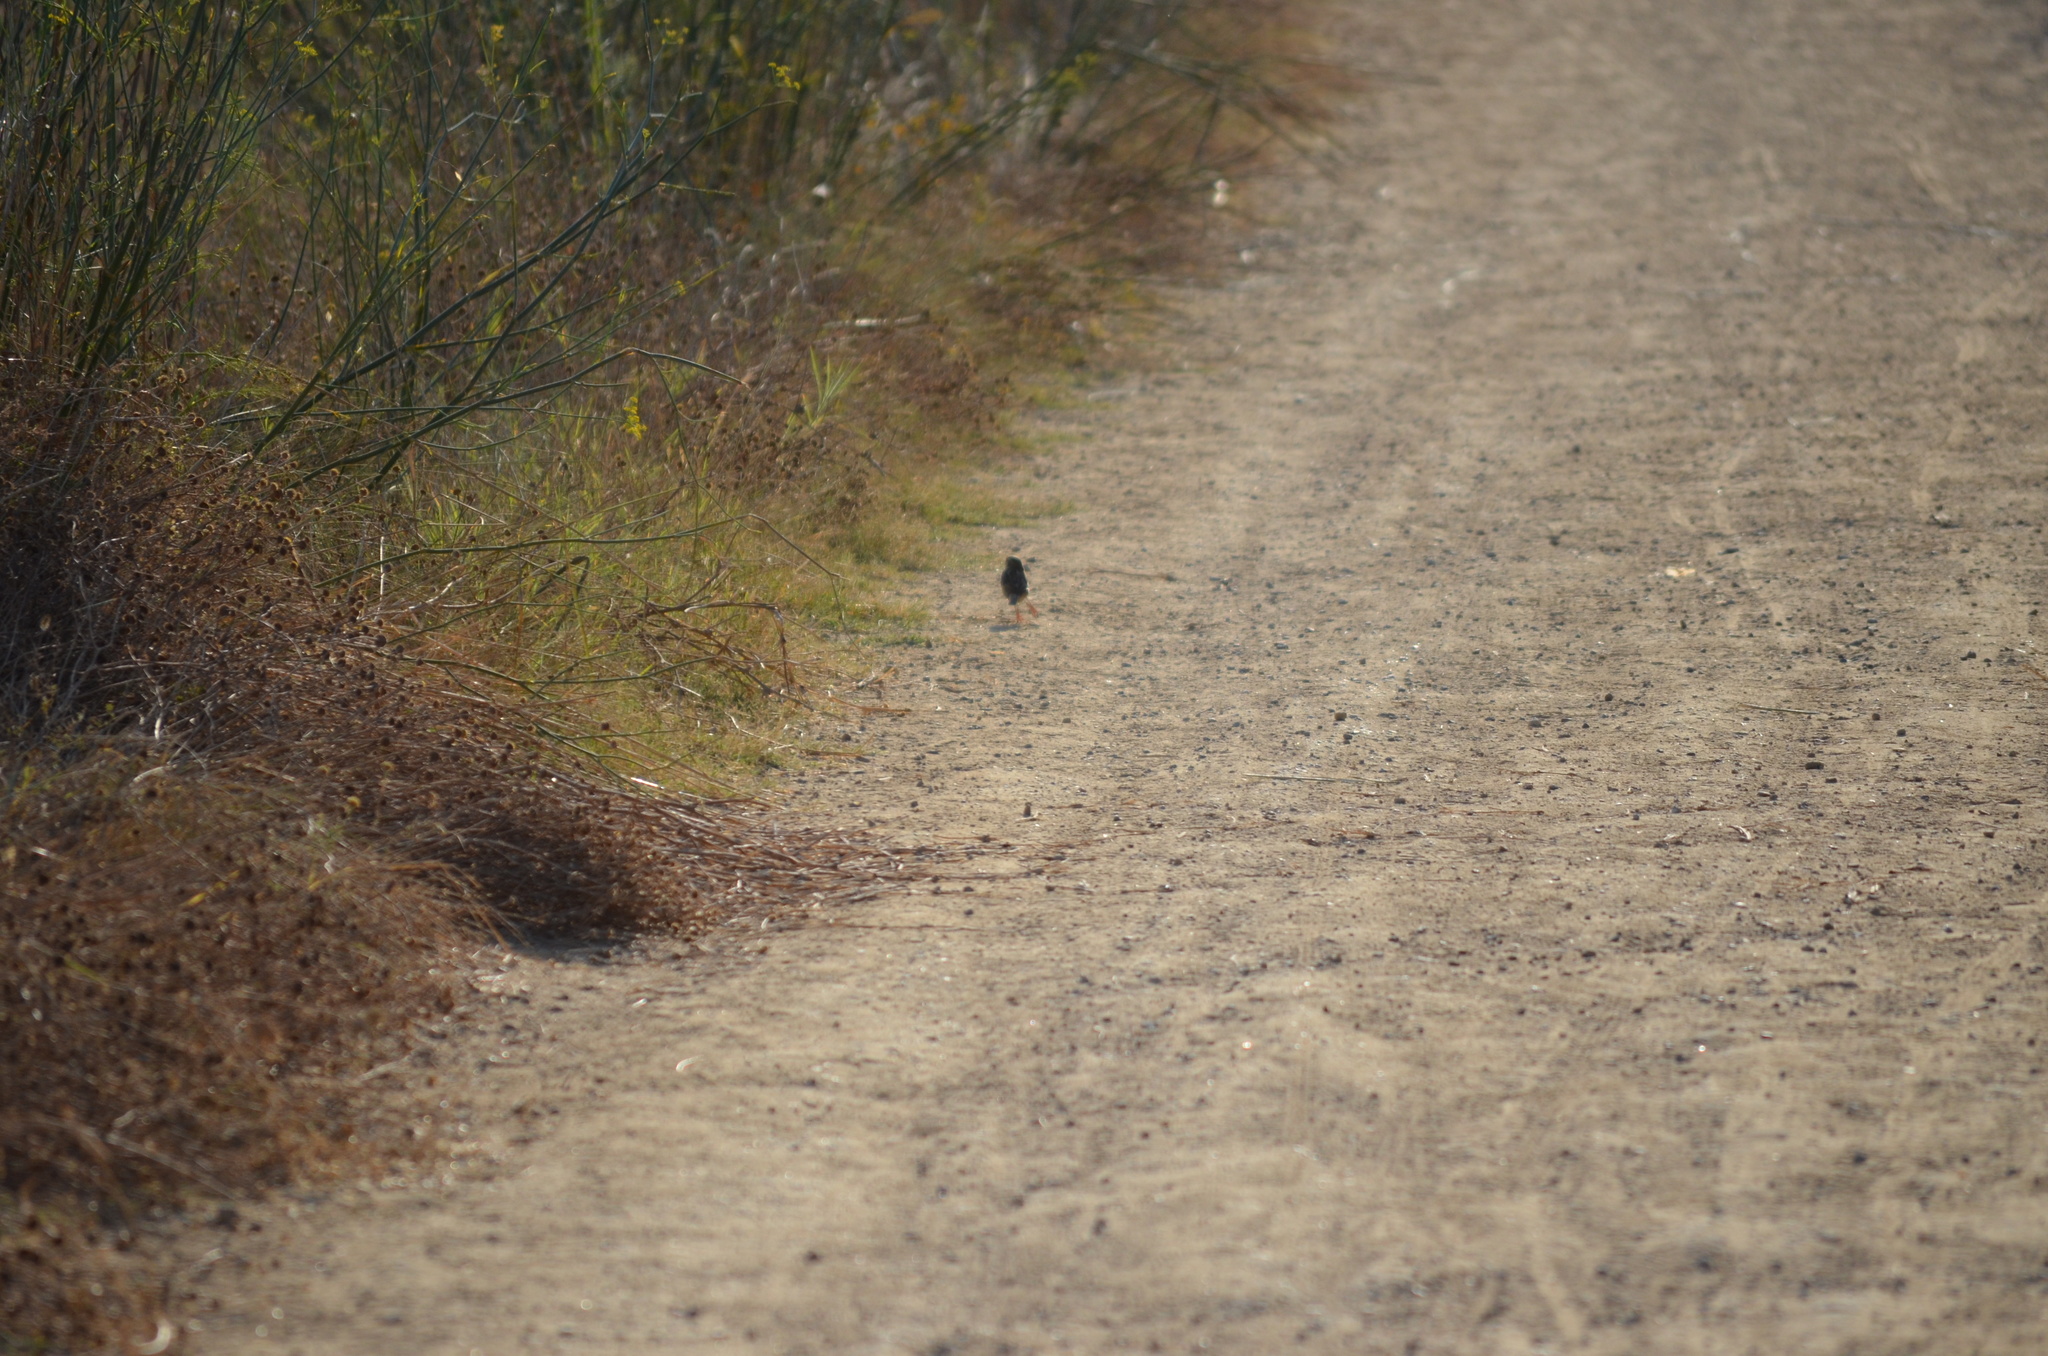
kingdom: Animalia
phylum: Chordata
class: Aves
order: Passeriformes
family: Passeridae
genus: Passer
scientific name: Passer domesticus
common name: House sparrow
